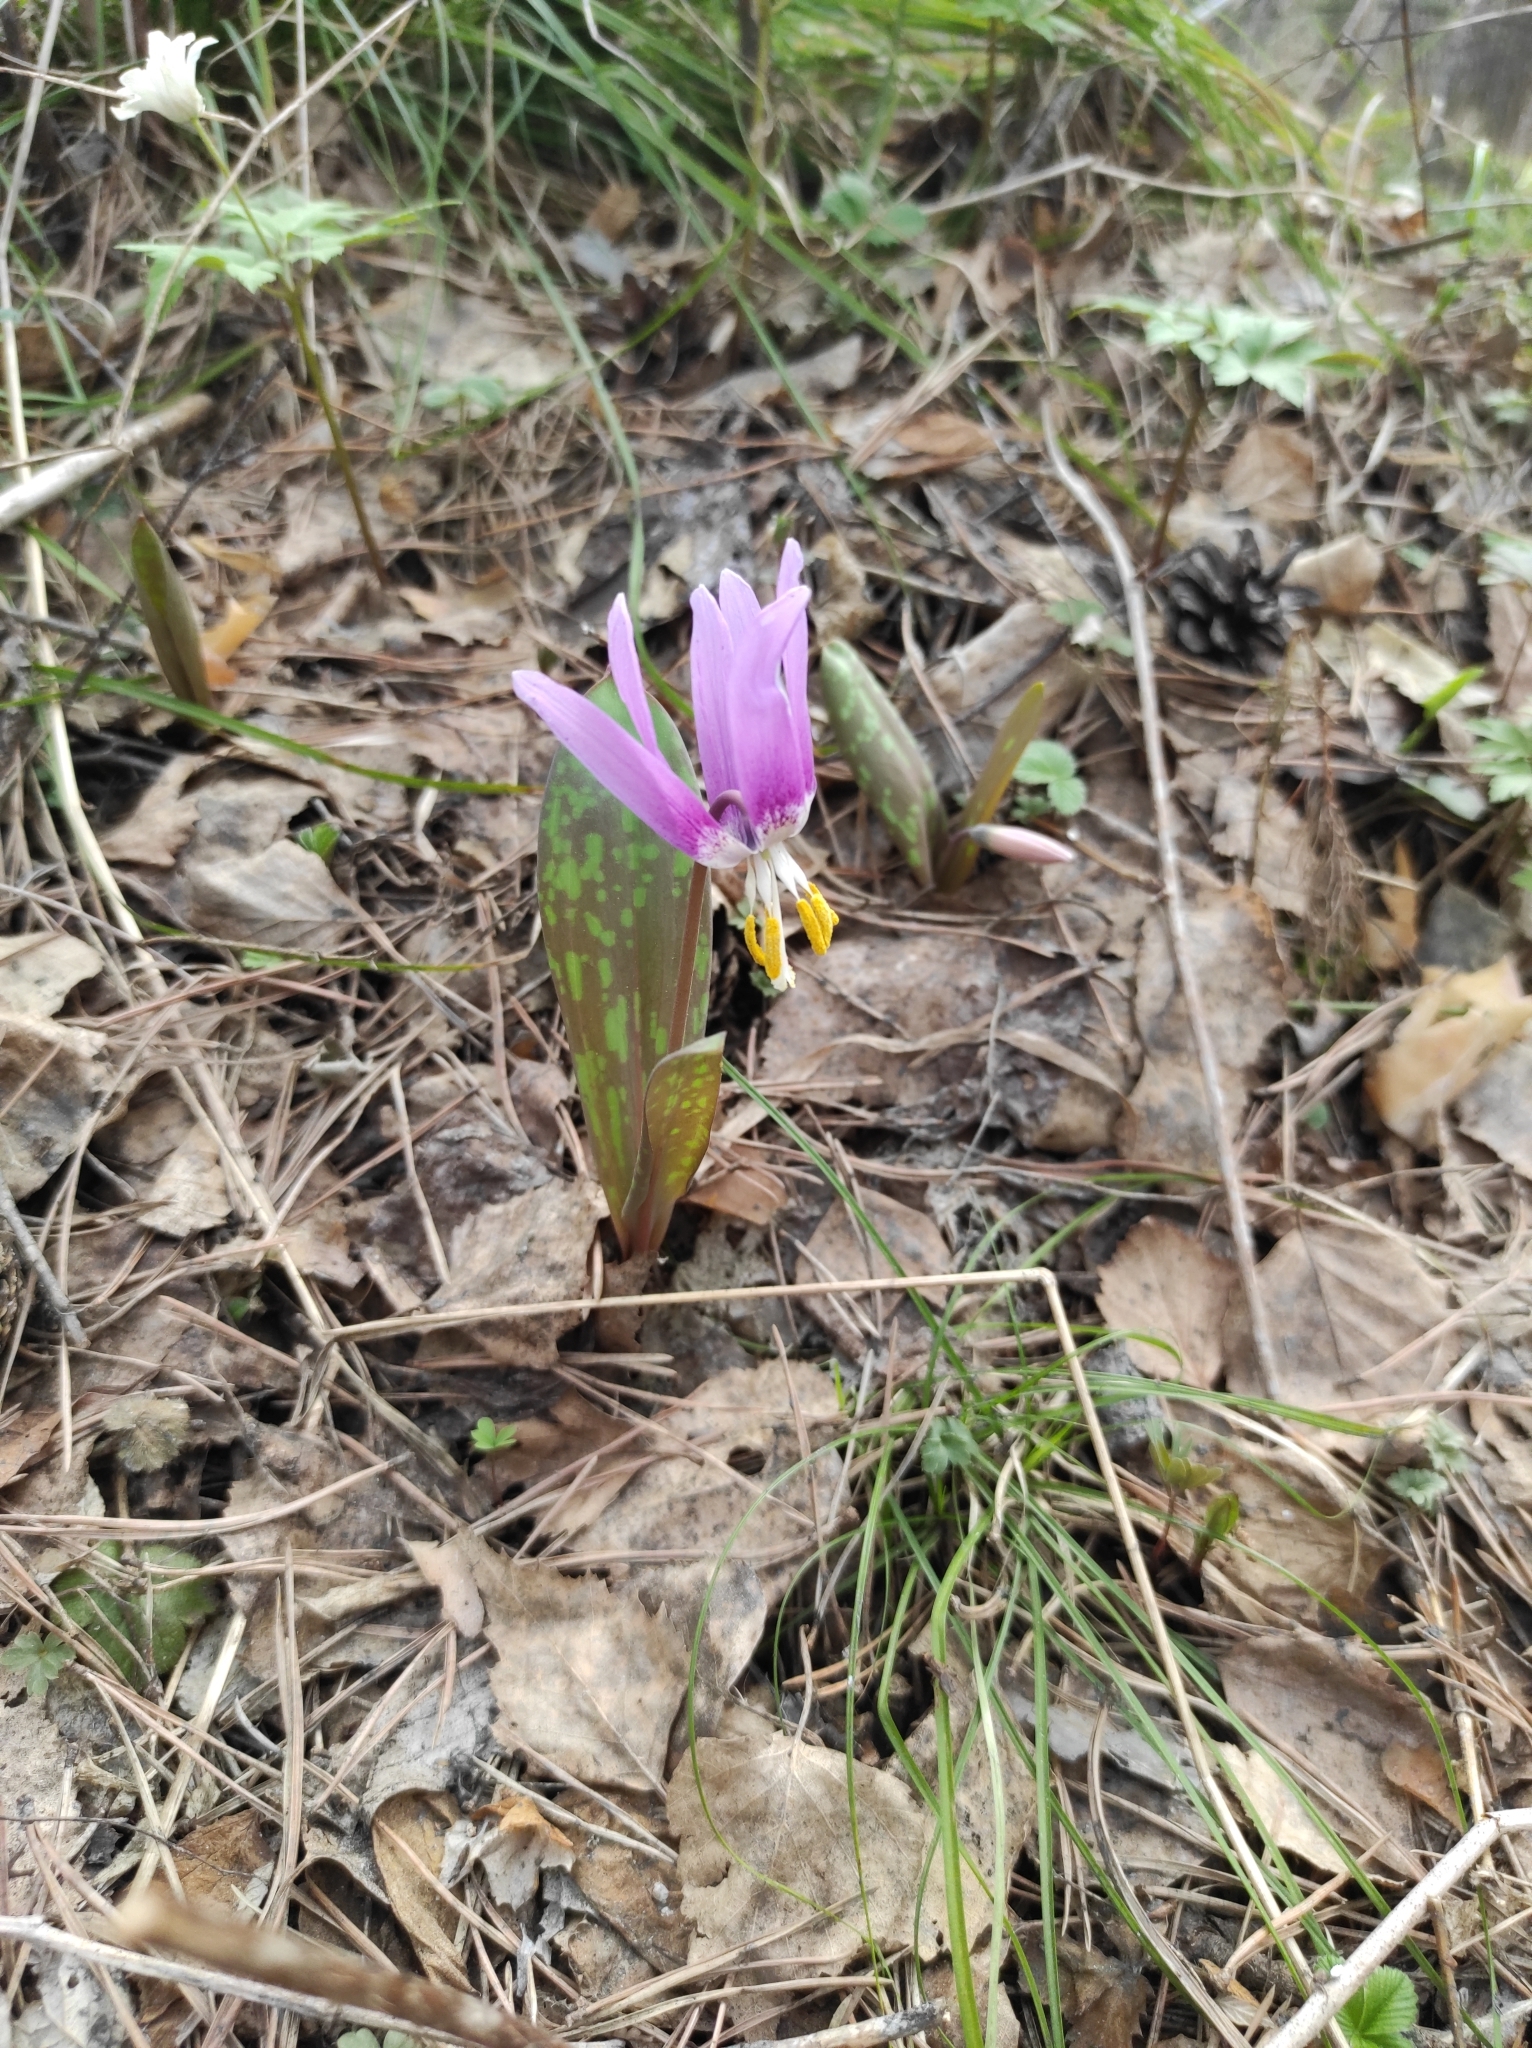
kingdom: Plantae
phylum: Tracheophyta
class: Liliopsida
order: Liliales
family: Liliaceae
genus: Erythronium
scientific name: Erythronium sibiricum
